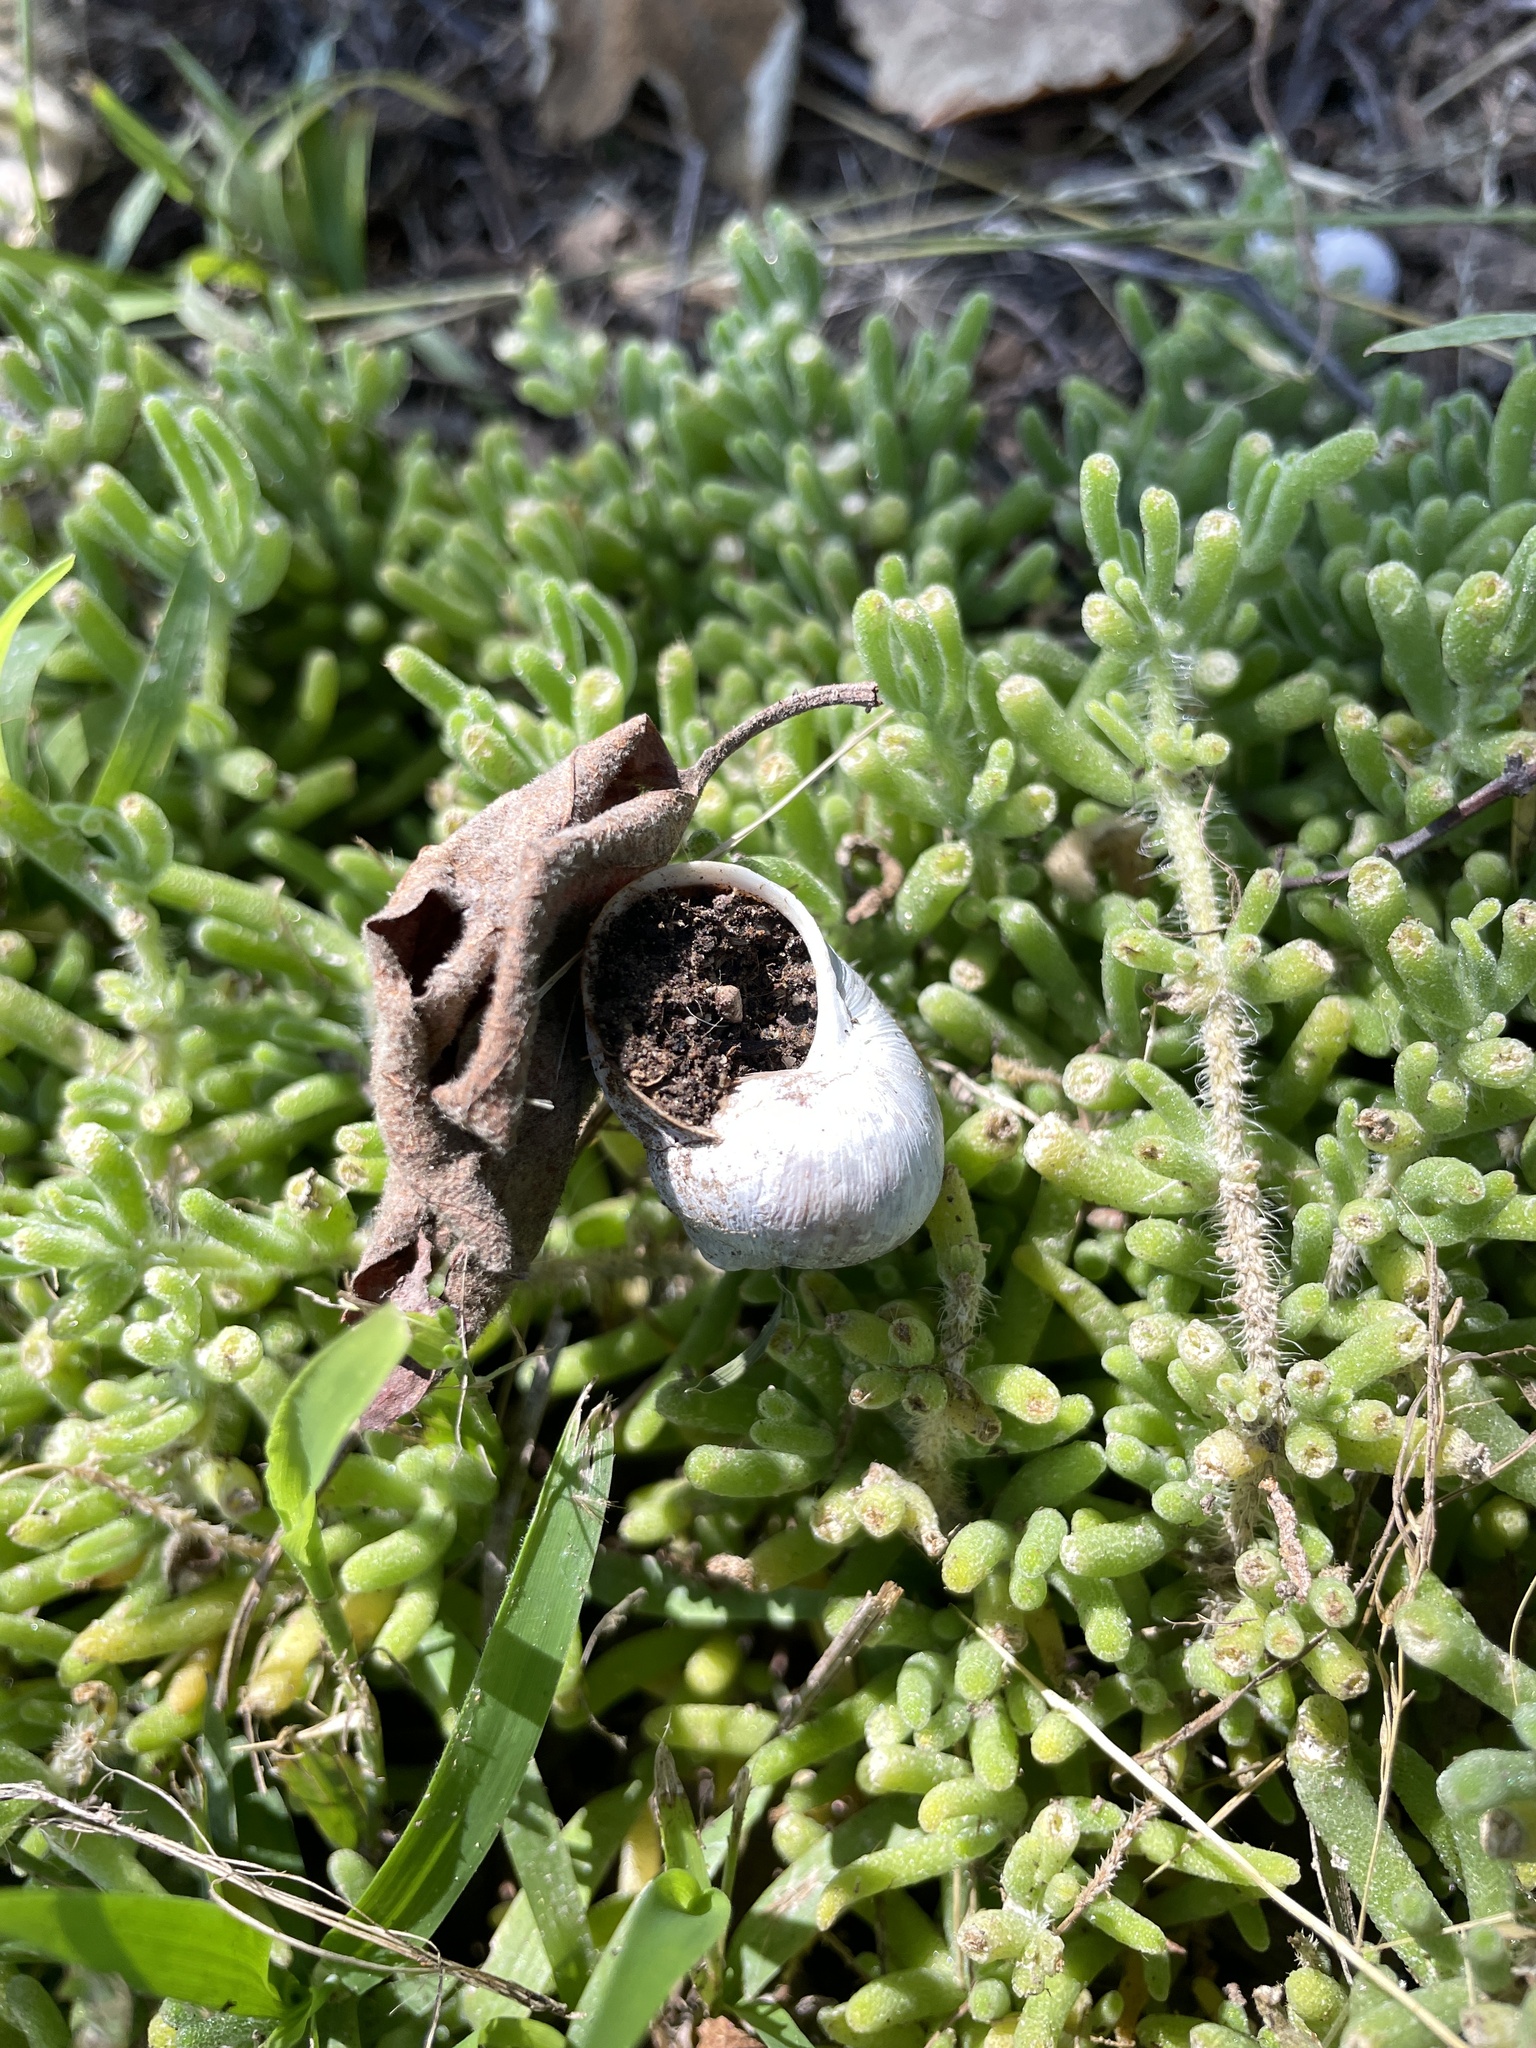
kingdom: Animalia
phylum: Mollusca
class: Gastropoda
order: Stylommatophora
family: Helicidae
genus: Cornu
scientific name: Cornu aspersum
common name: Brown garden snail
